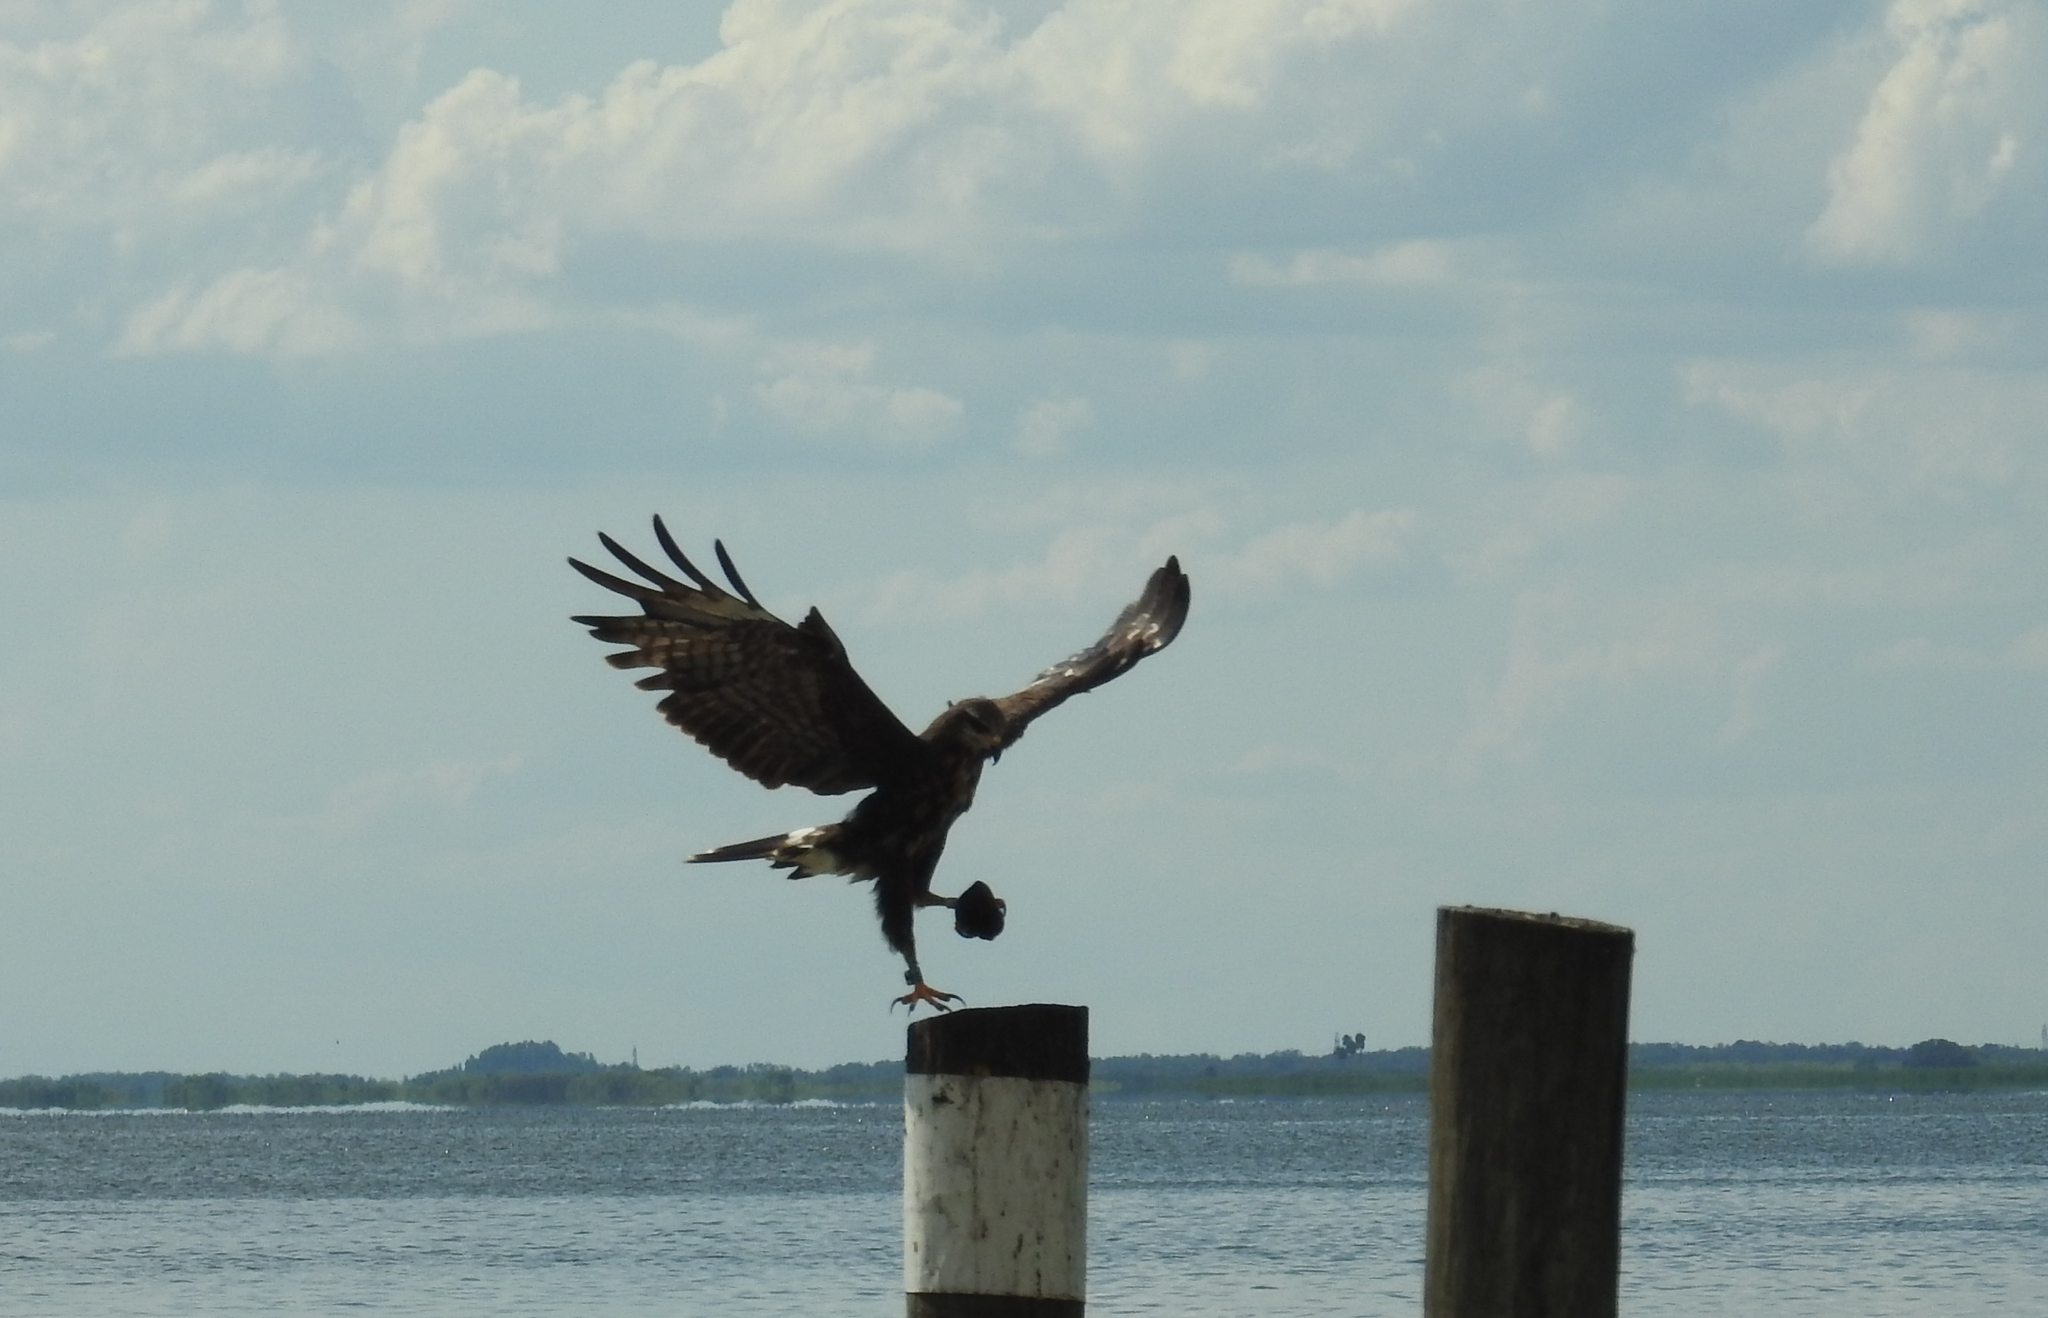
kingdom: Animalia
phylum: Chordata
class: Aves
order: Accipitriformes
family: Accipitridae
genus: Rostrhamus
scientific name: Rostrhamus sociabilis
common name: Snail kite
